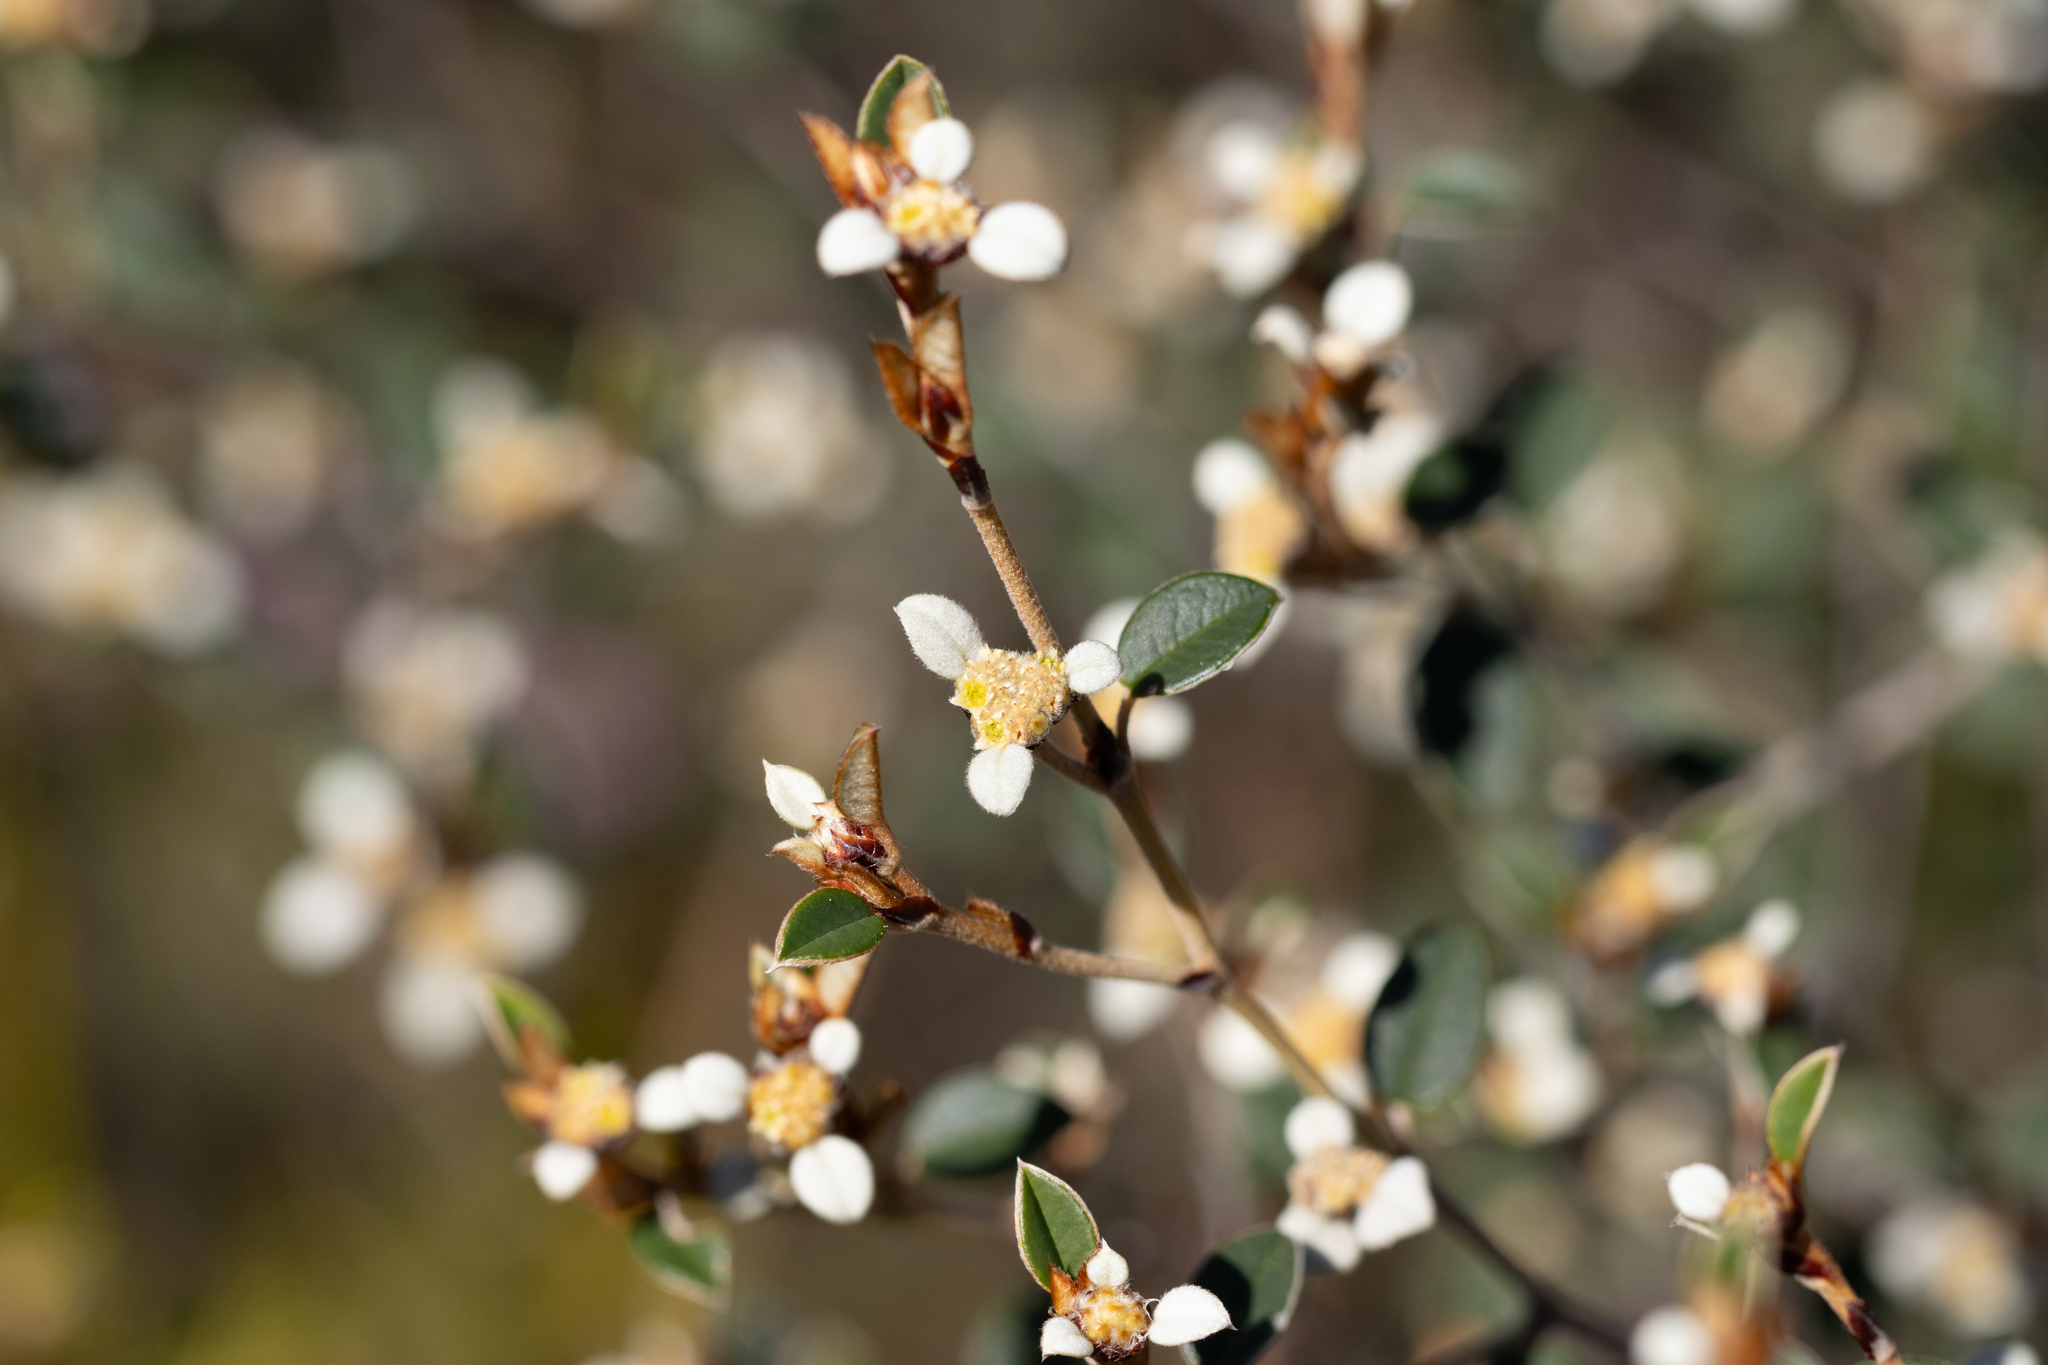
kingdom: Plantae
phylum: Tracheophyta
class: Magnoliopsida
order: Rosales
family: Rhamnaceae
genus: Spyridium
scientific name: Spyridium thymifolium
